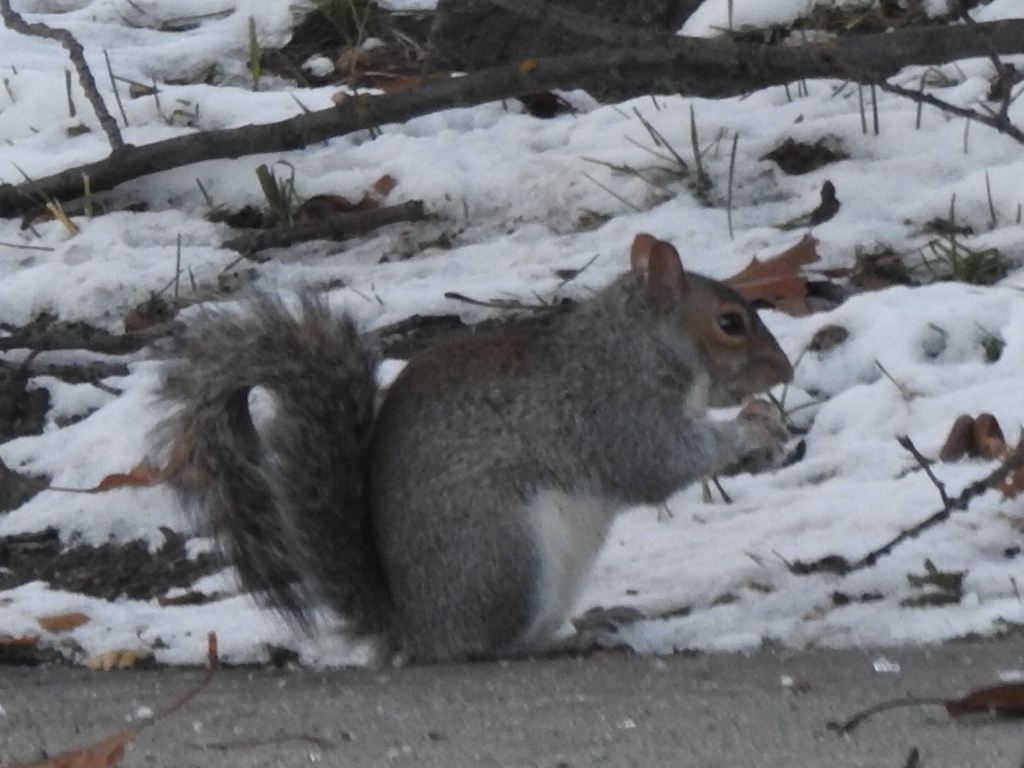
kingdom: Animalia
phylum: Chordata
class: Mammalia
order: Rodentia
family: Sciuridae
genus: Sciurus
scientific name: Sciurus carolinensis
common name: Eastern gray squirrel
